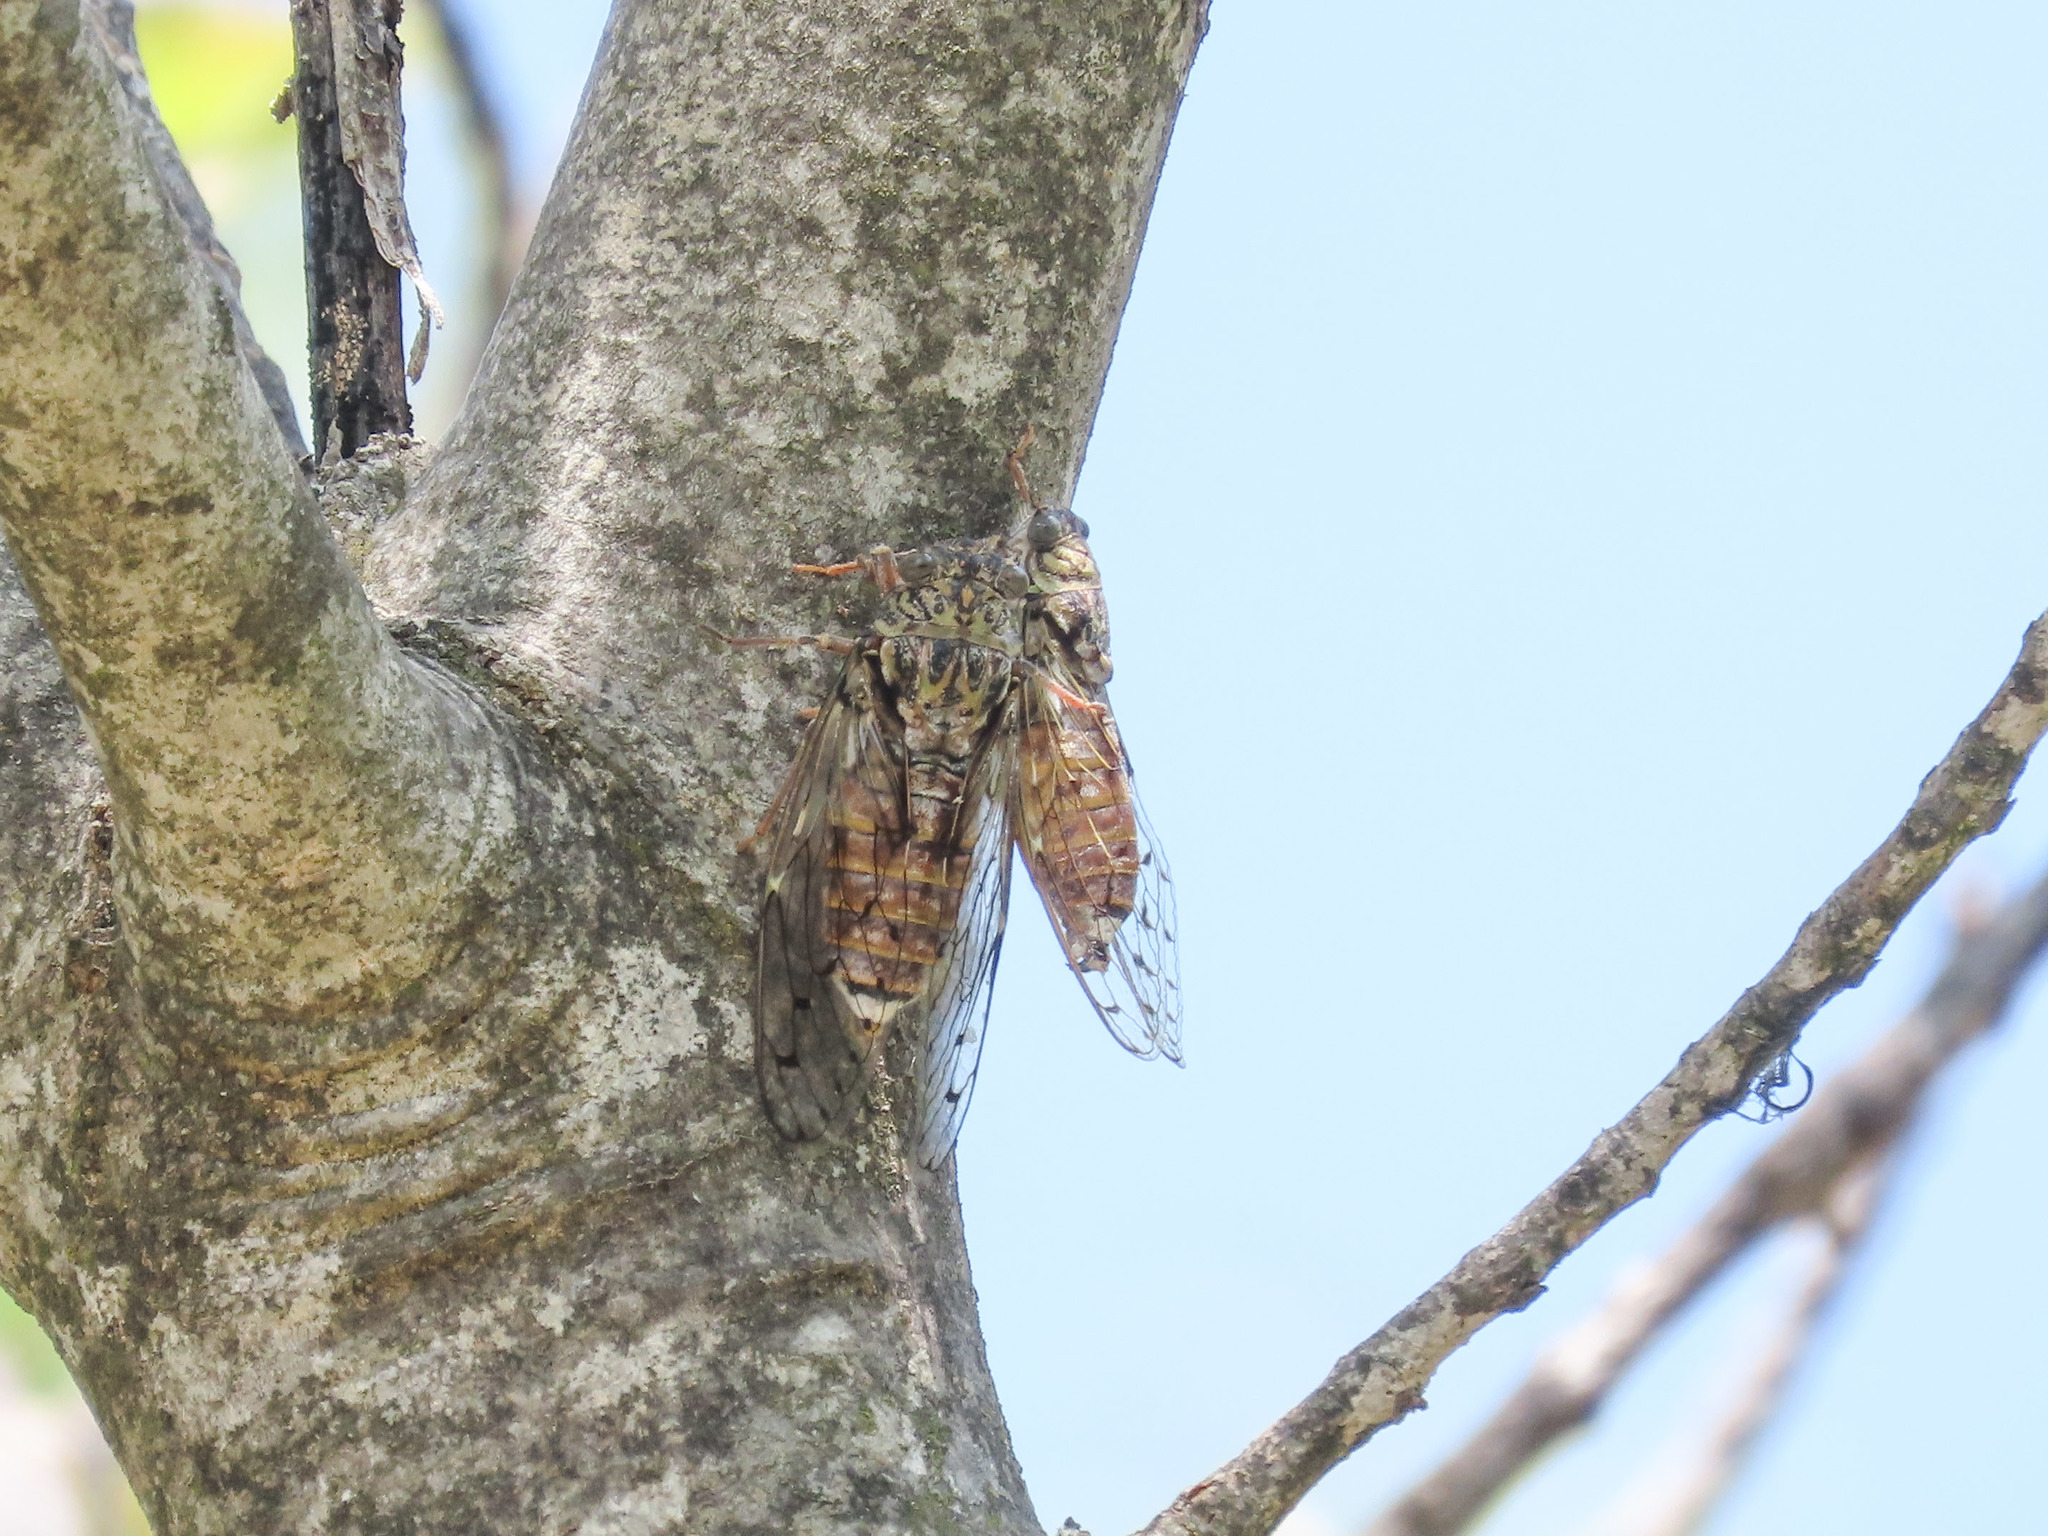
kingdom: Animalia
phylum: Arthropoda
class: Insecta
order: Hemiptera
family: Cicadidae
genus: Cicada
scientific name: Cicada orni
